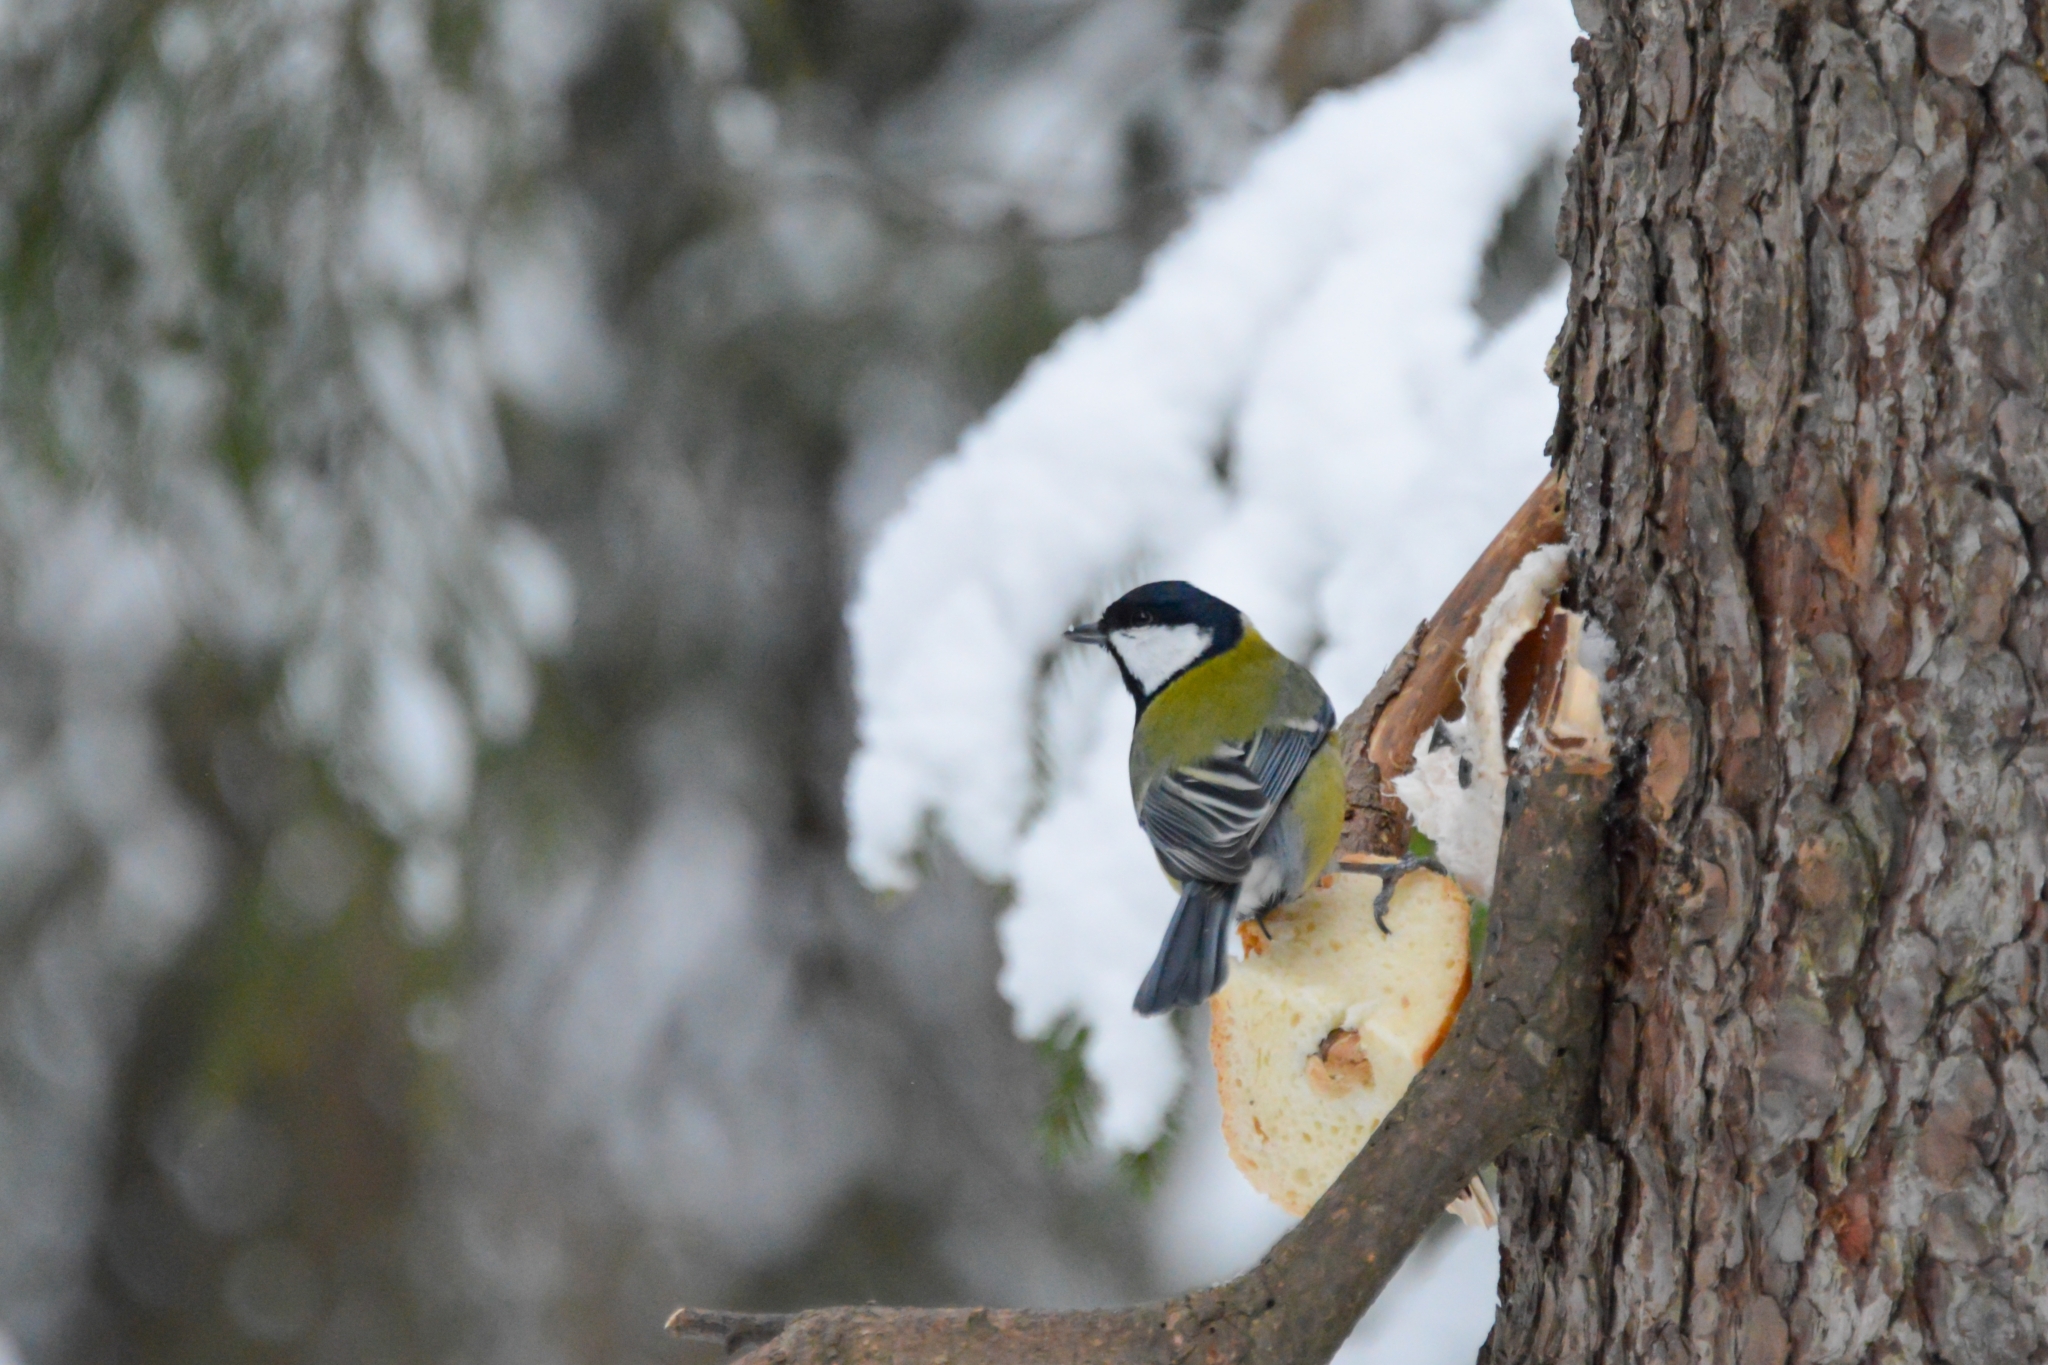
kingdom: Animalia
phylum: Chordata
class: Aves
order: Passeriformes
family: Paridae
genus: Parus
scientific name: Parus major
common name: Great tit
